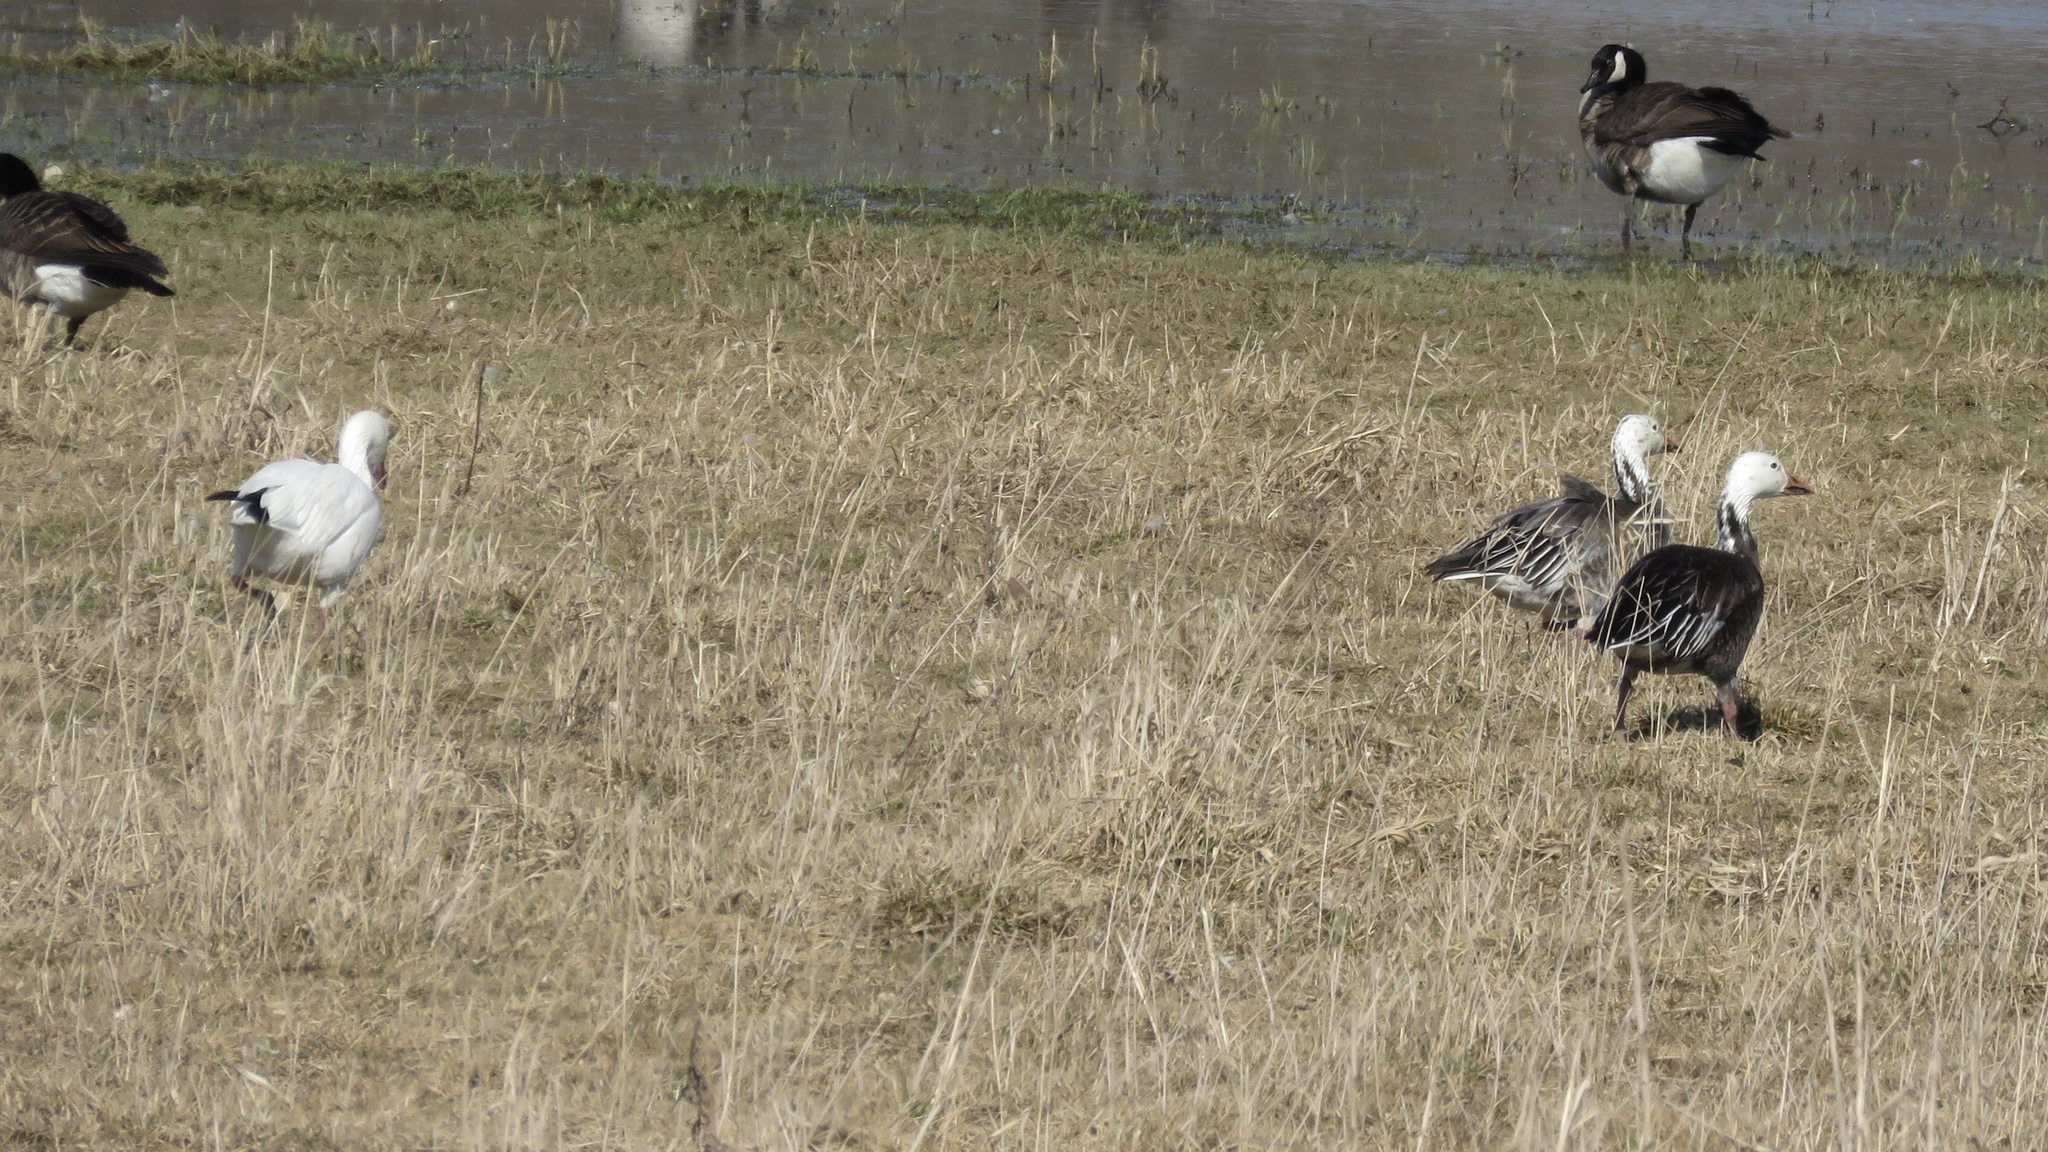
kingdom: Animalia
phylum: Chordata
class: Aves
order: Anseriformes
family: Anatidae
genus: Anser
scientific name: Anser caerulescens
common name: Snow goose
